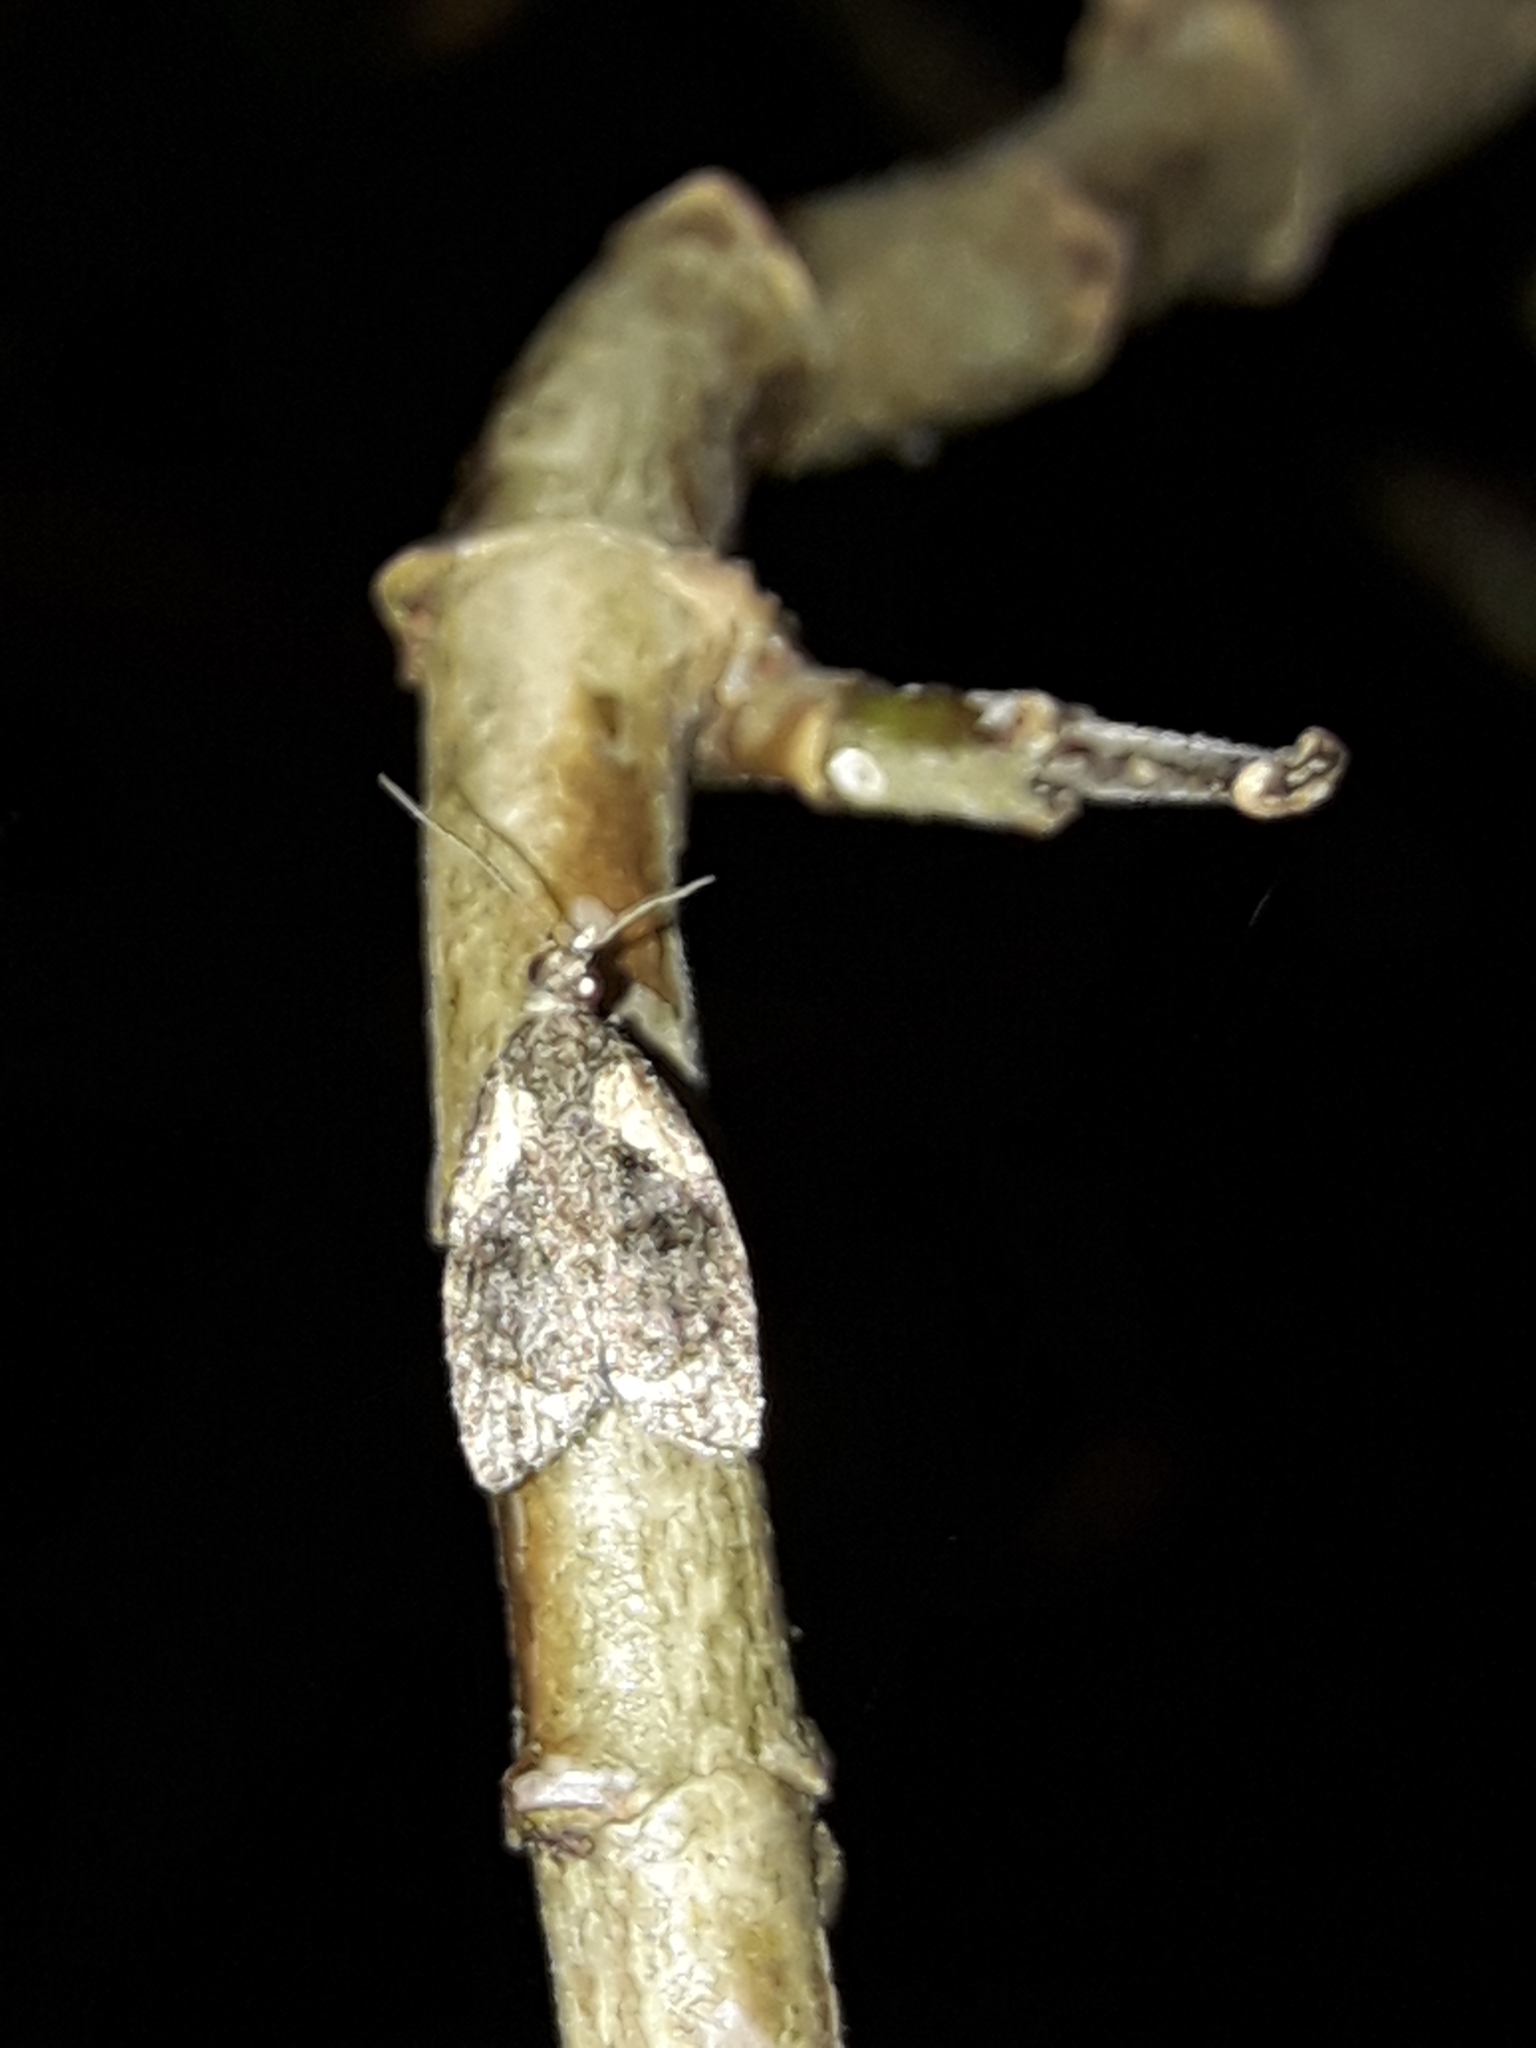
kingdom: Animalia
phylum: Arthropoda
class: Insecta
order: Lepidoptera
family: Tortricidae
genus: Capua
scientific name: Capua intractana
